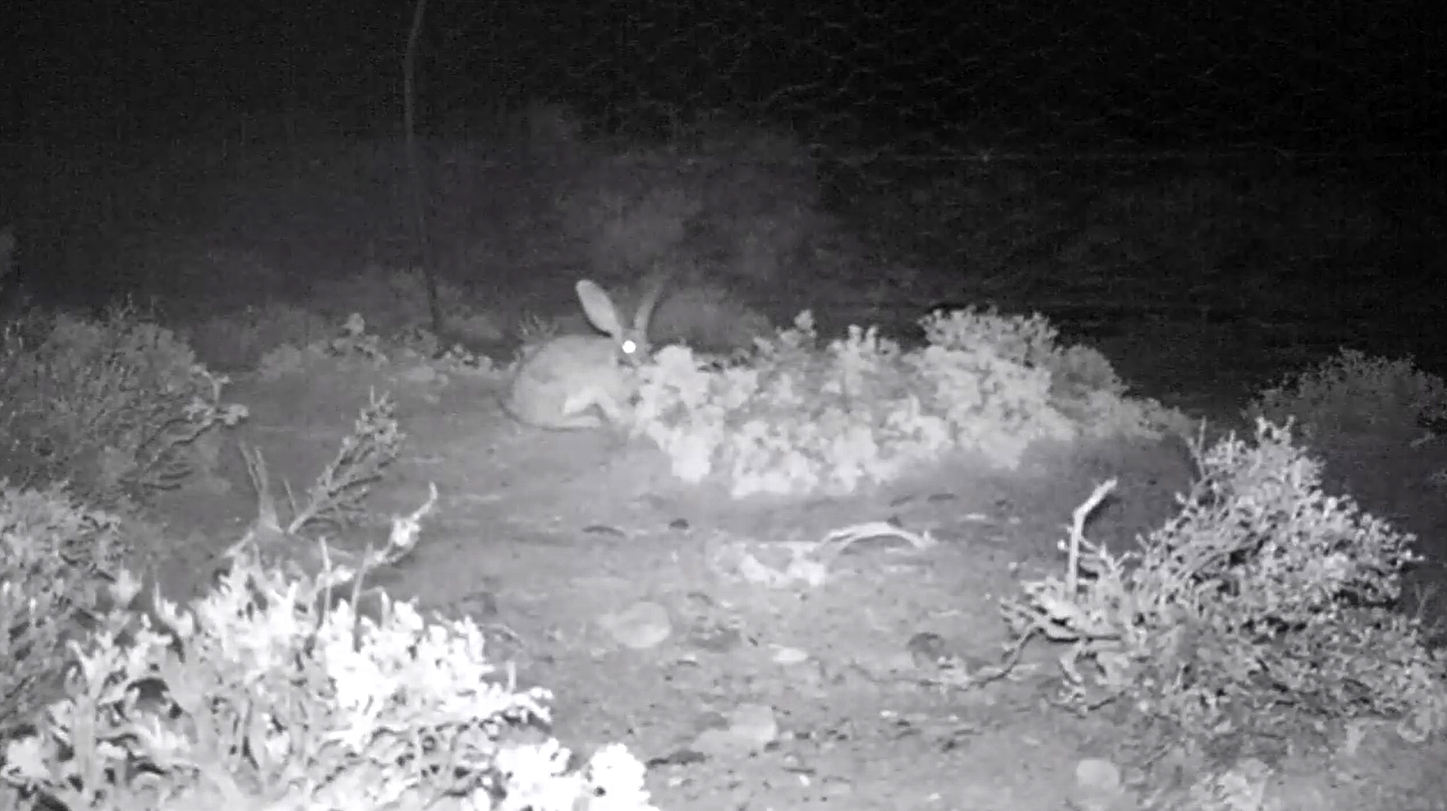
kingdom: Animalia
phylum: Chordata
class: Mammalia
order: Lagomorpha
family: Leporidae
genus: Bunolagus
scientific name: Bunolagus monticularis
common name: Riverine rabbit
